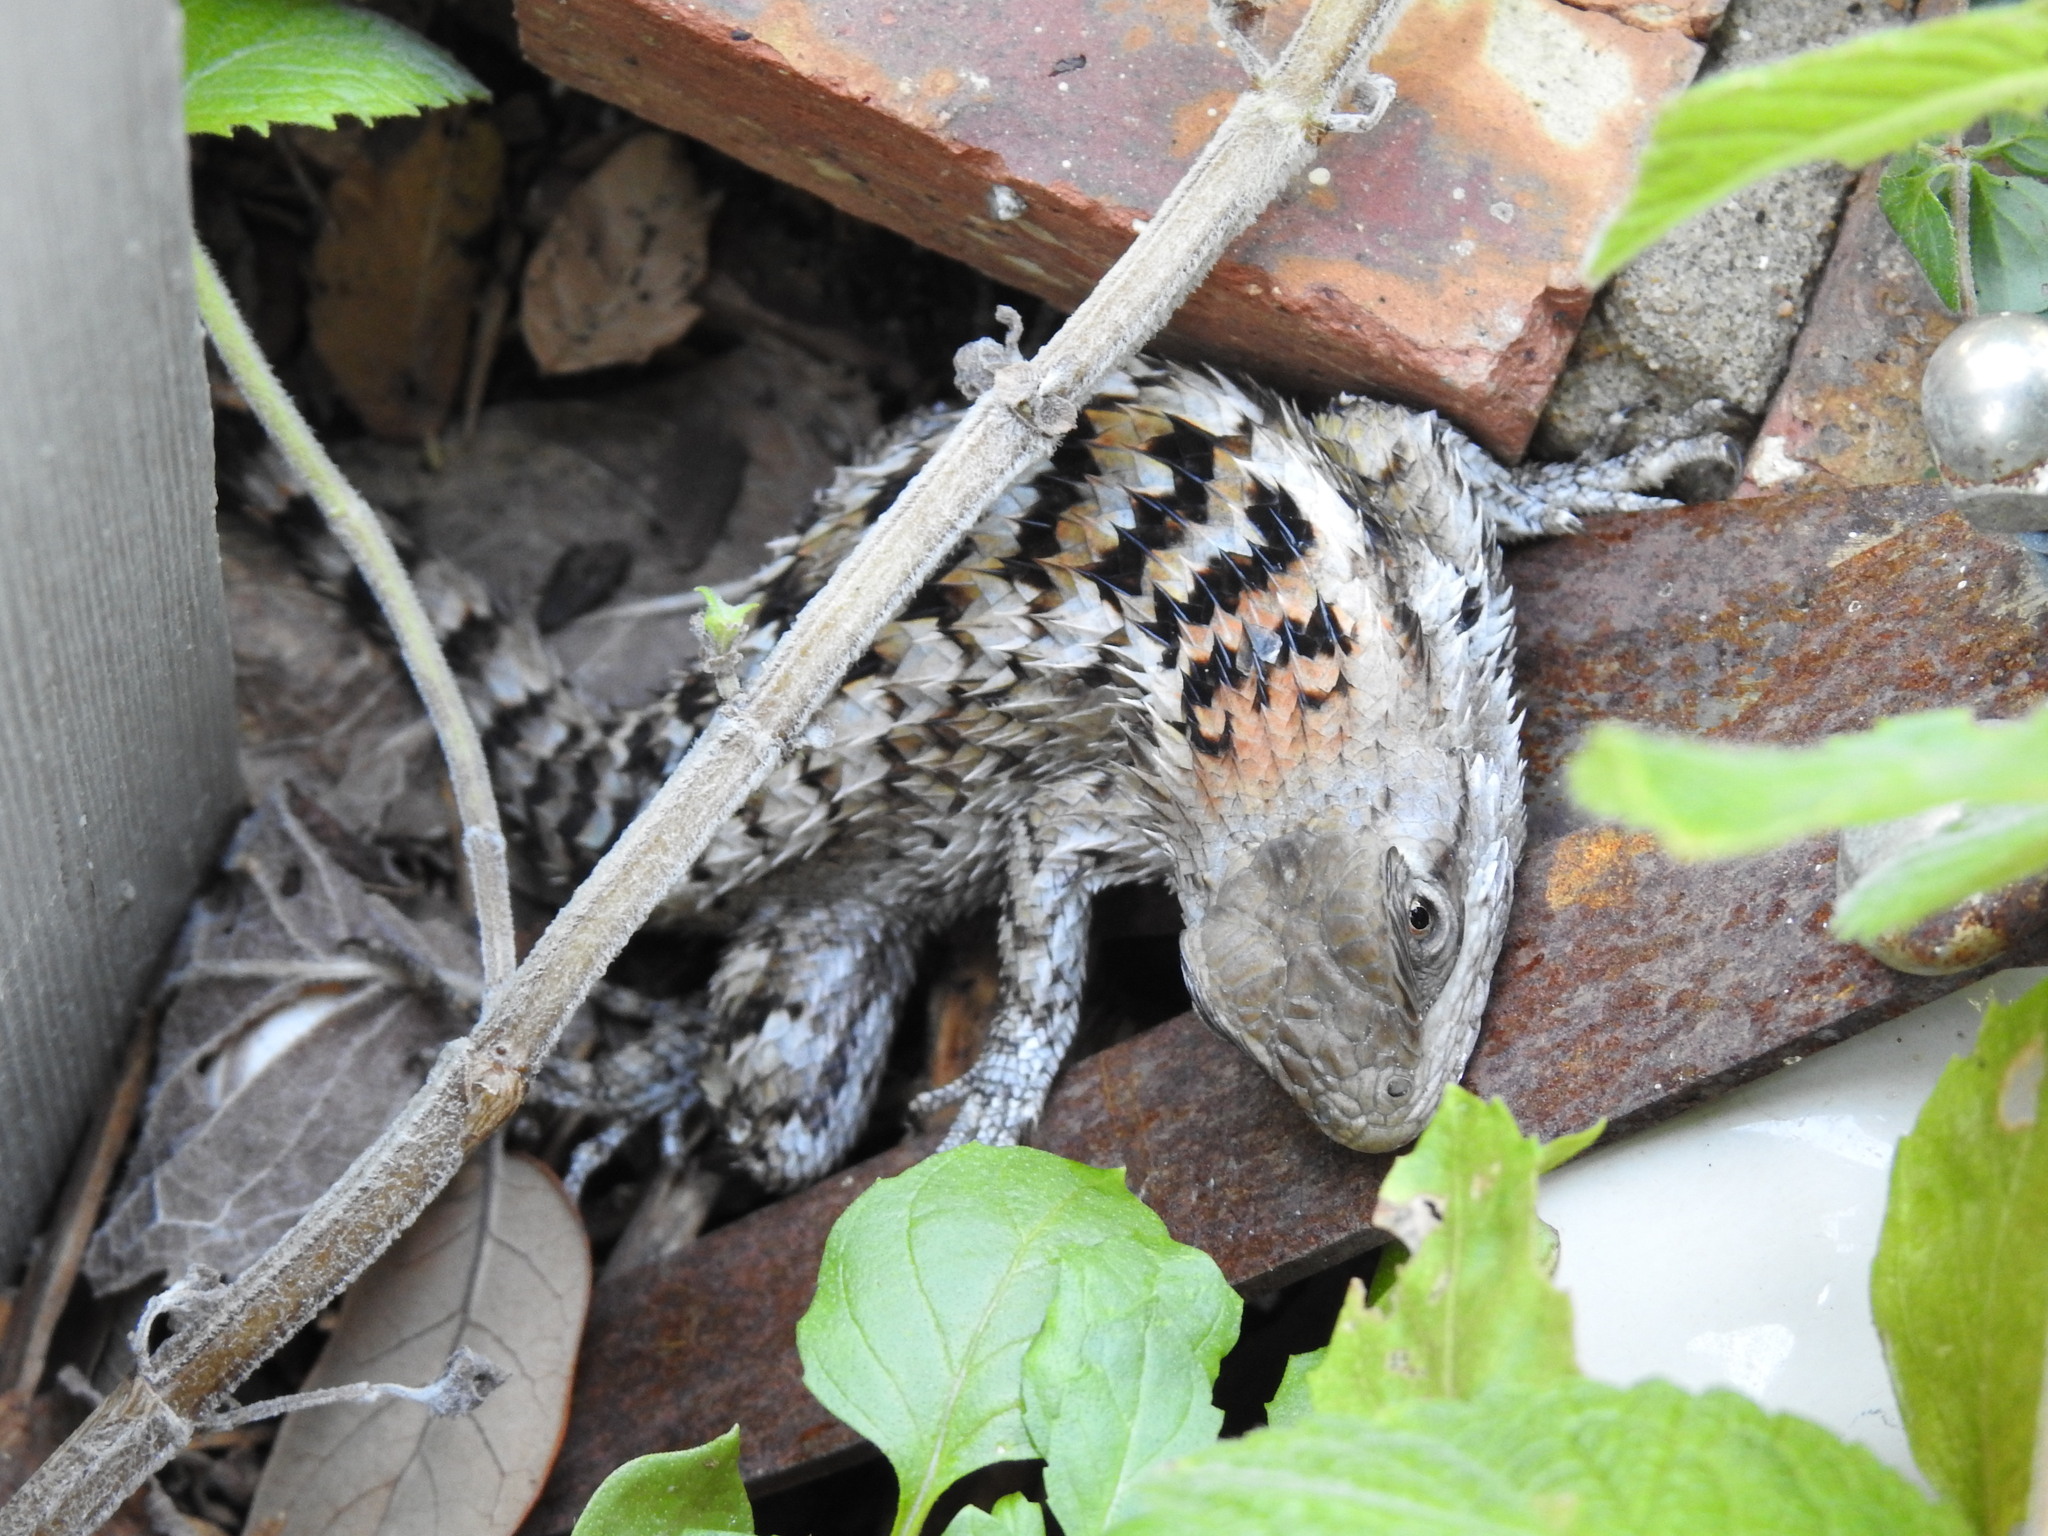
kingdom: Animalia
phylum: Chordata
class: Squamata
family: Phrynosomatidae
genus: Sceloporus
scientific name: Sceloporus olivaceus
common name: Texas spiny lizard
